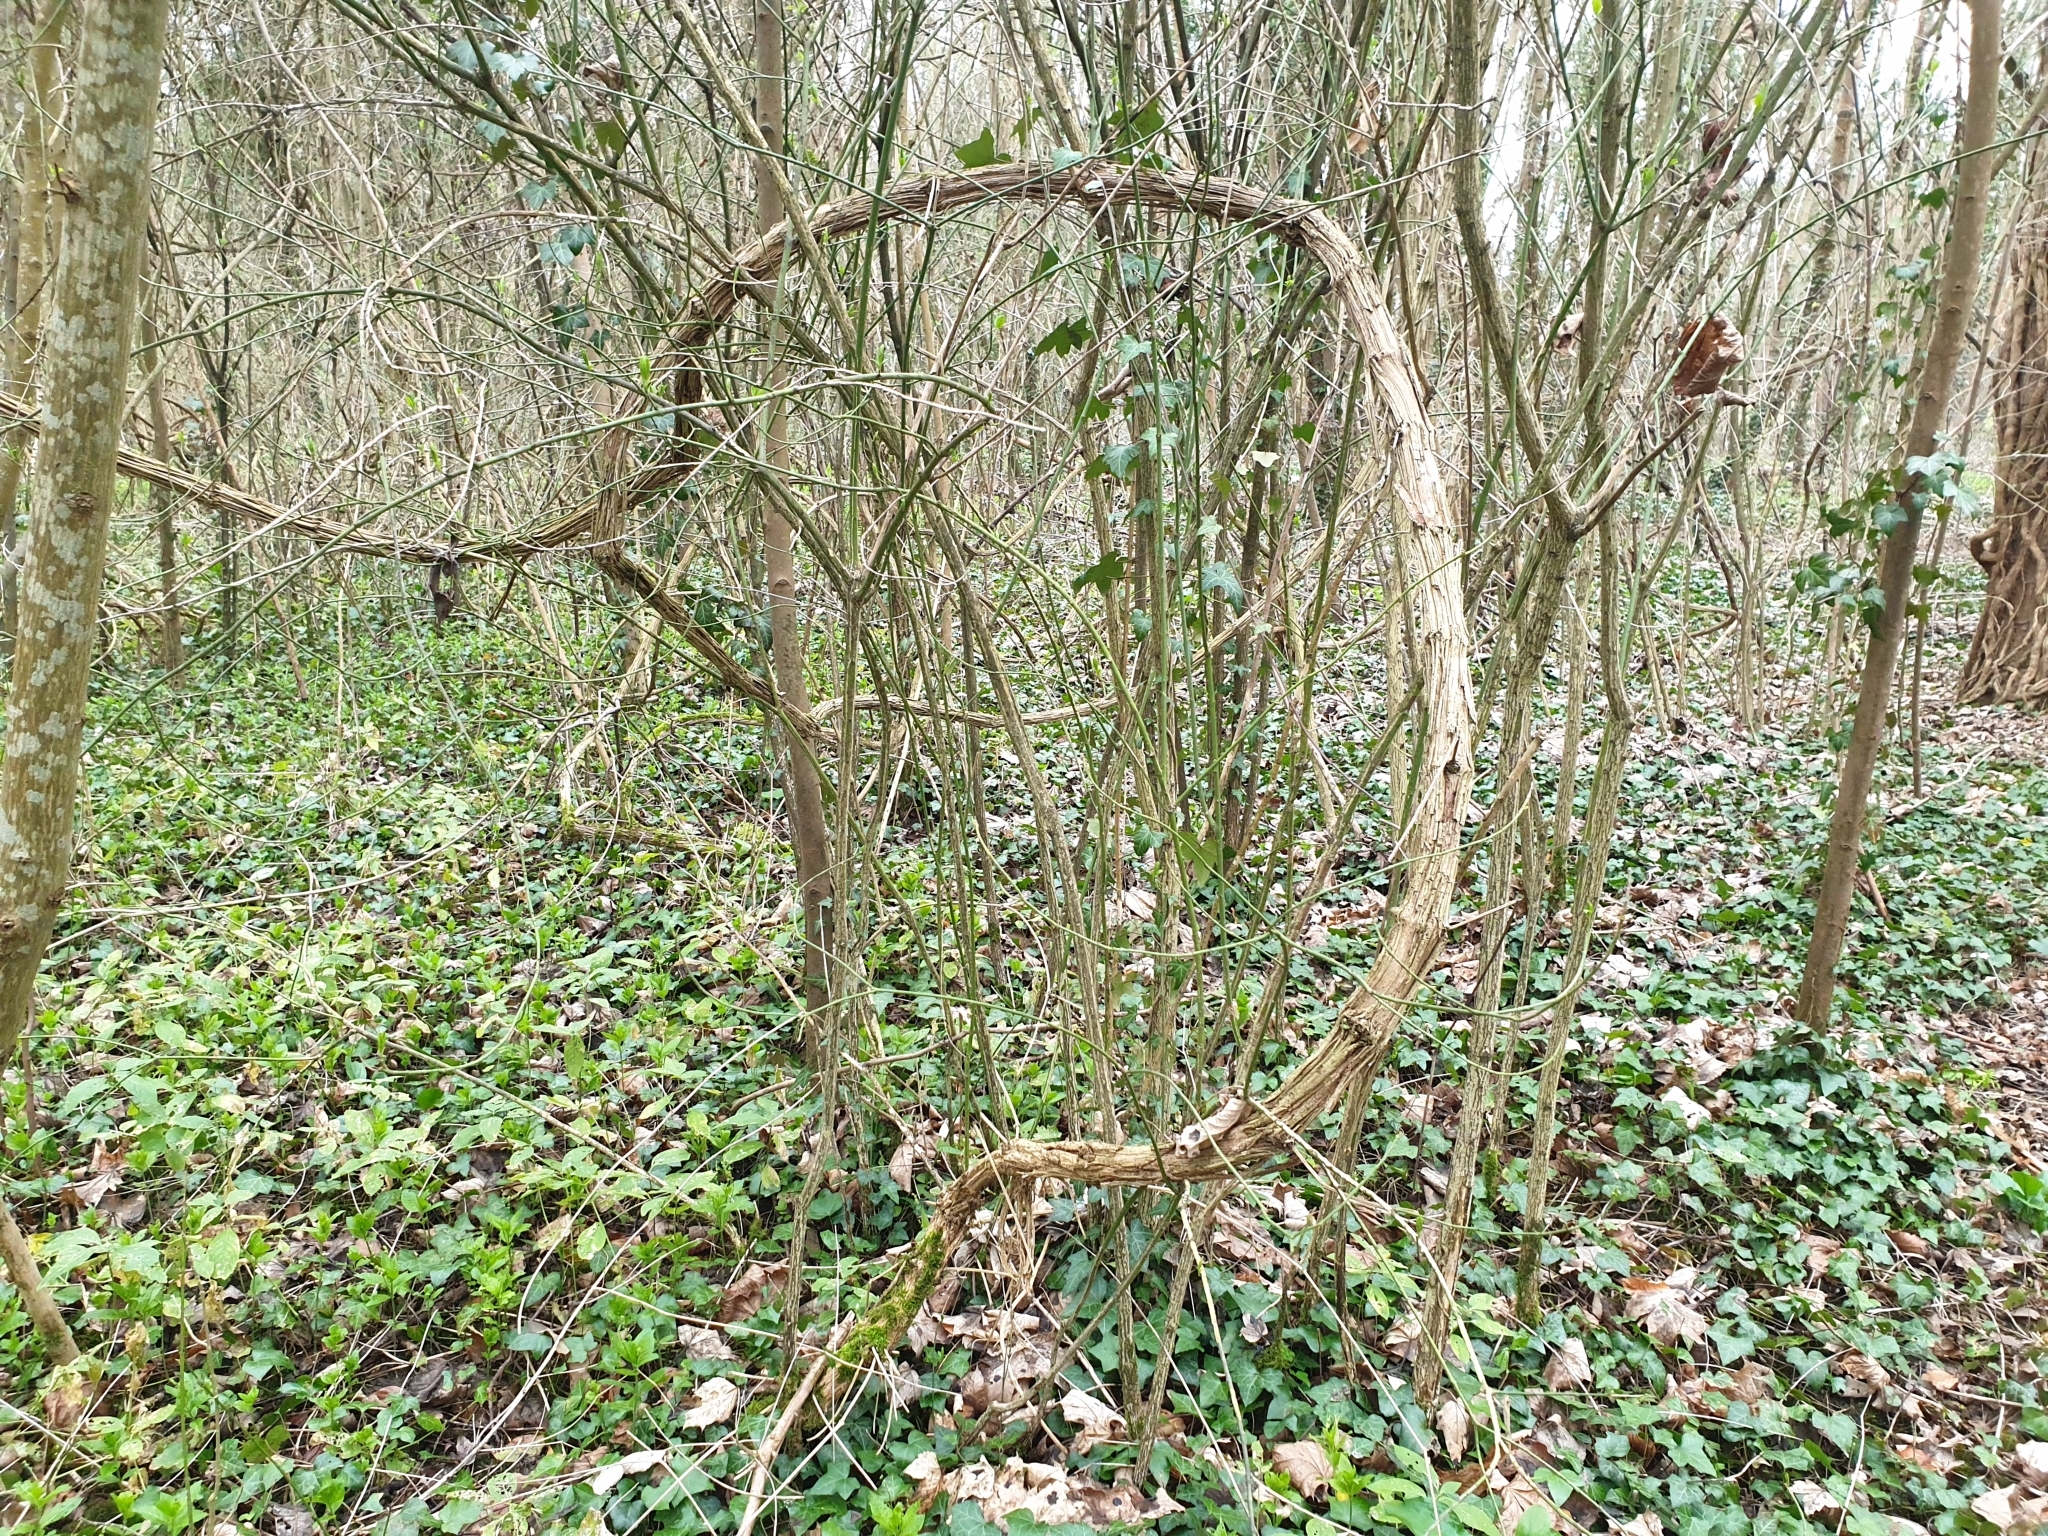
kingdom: Plantae
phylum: Tracheophyta
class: Magnoliopsida
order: Ranunculales
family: Ranunculaceae
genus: Clematis
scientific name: Clematis vitalba
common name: Evergreen clematis
